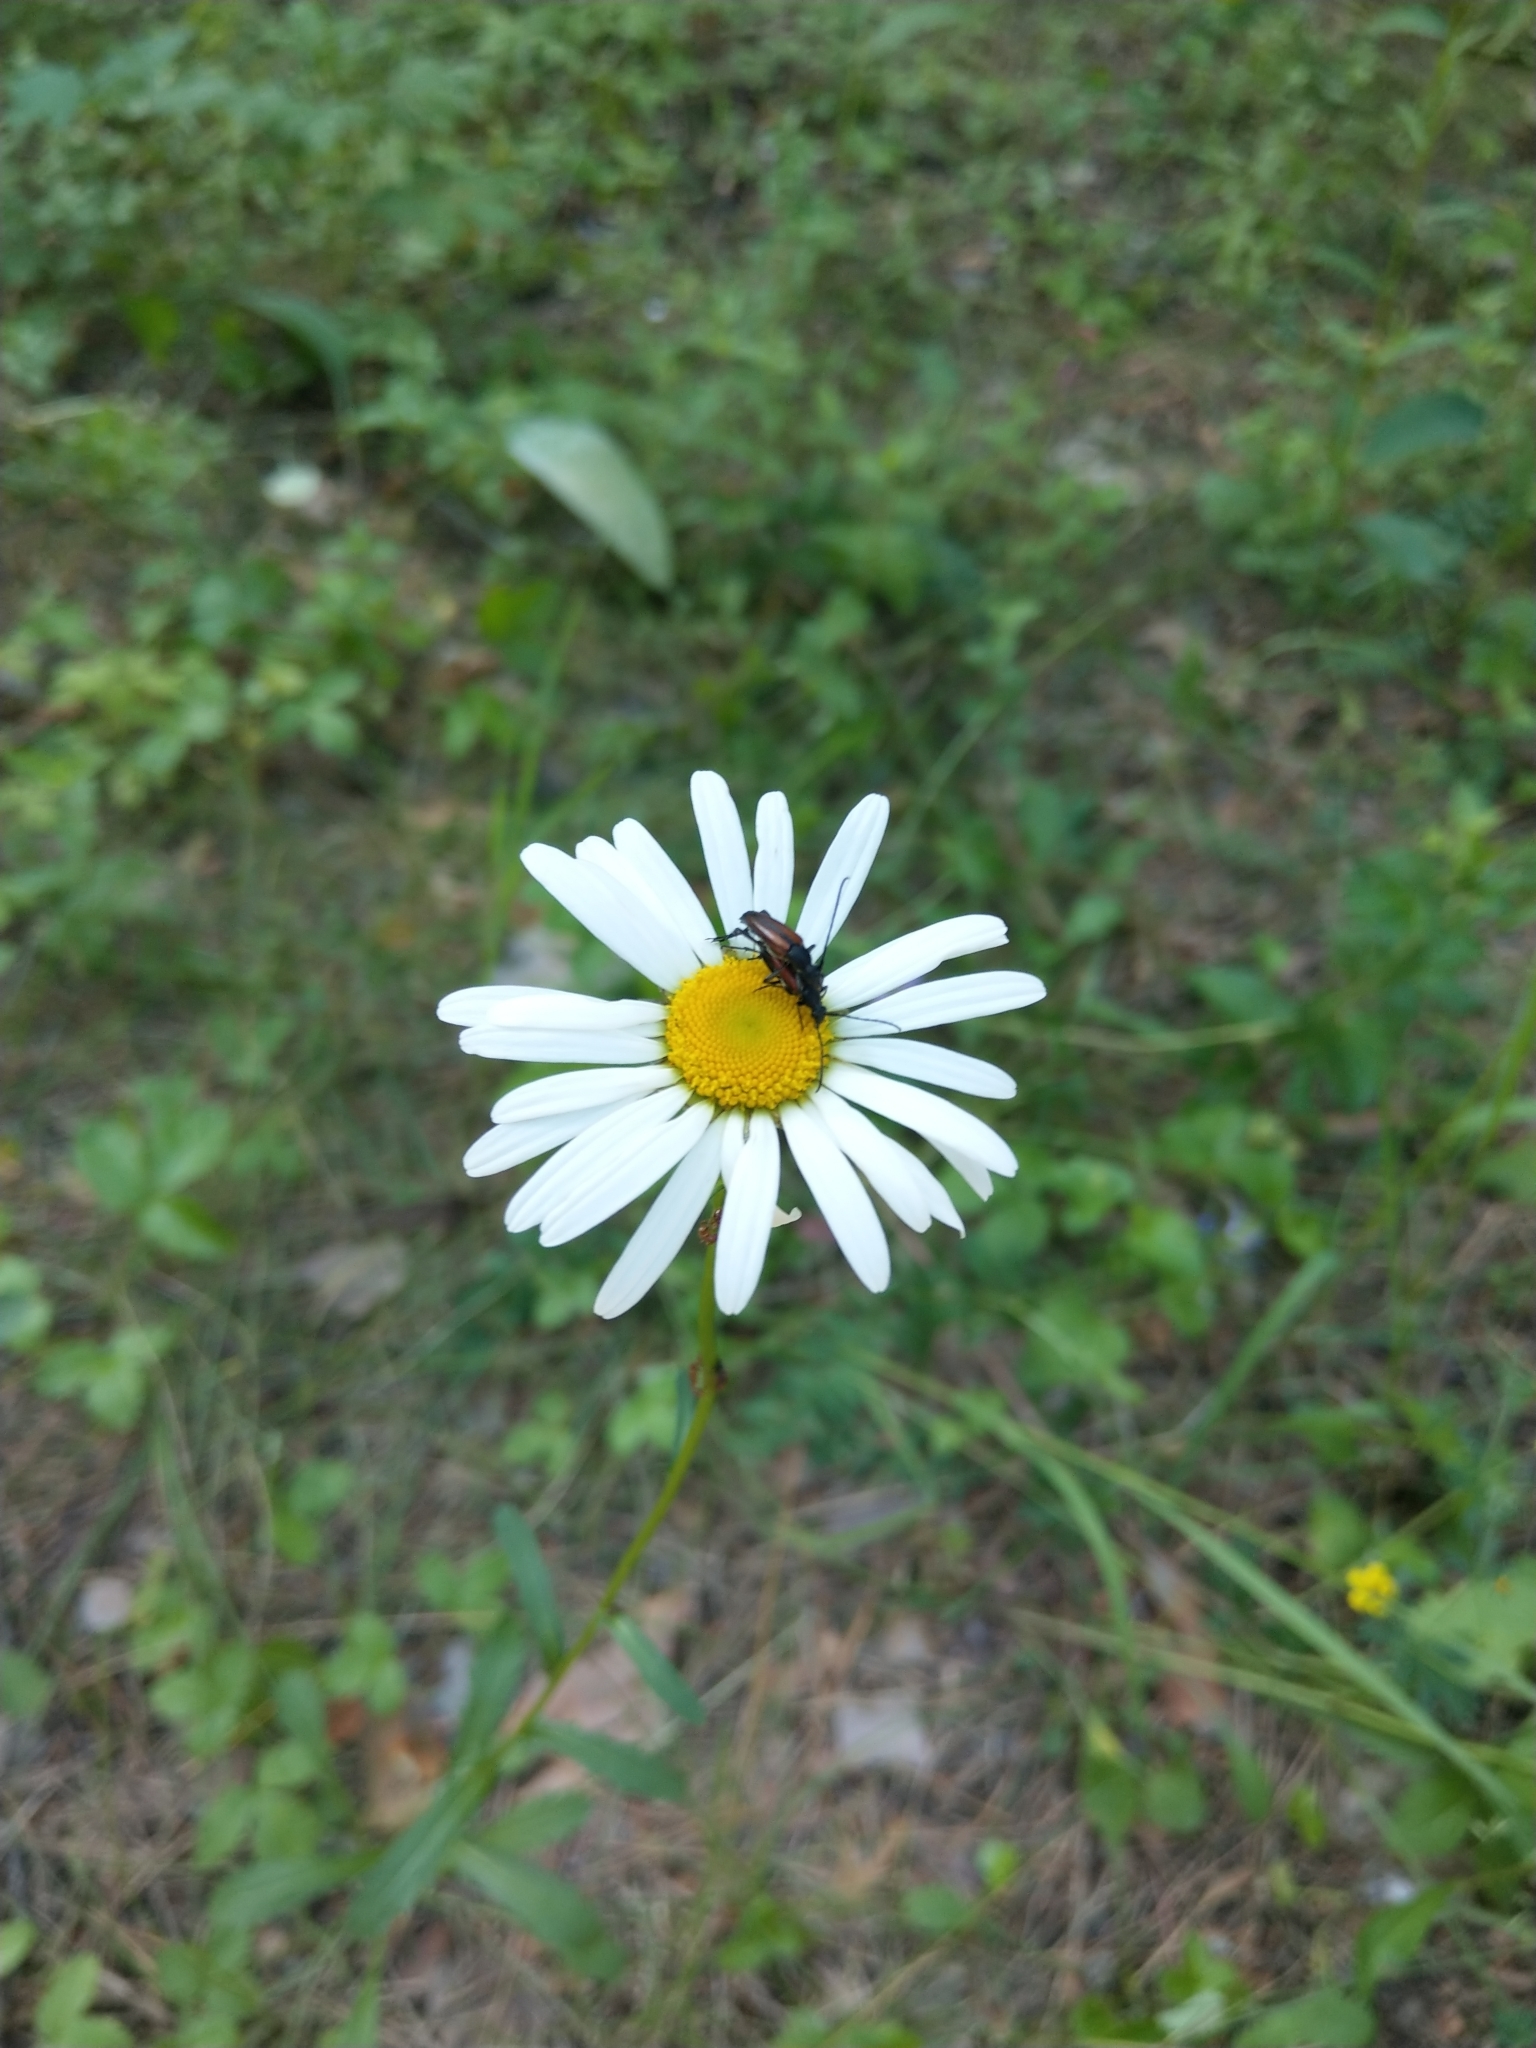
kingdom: Plantae
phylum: Tracheophyta
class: Magnoliopsida
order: Asterales
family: Asteraceae
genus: Leucanthemum
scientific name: Leucanthemum vulgare
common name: Oxeye daisy
